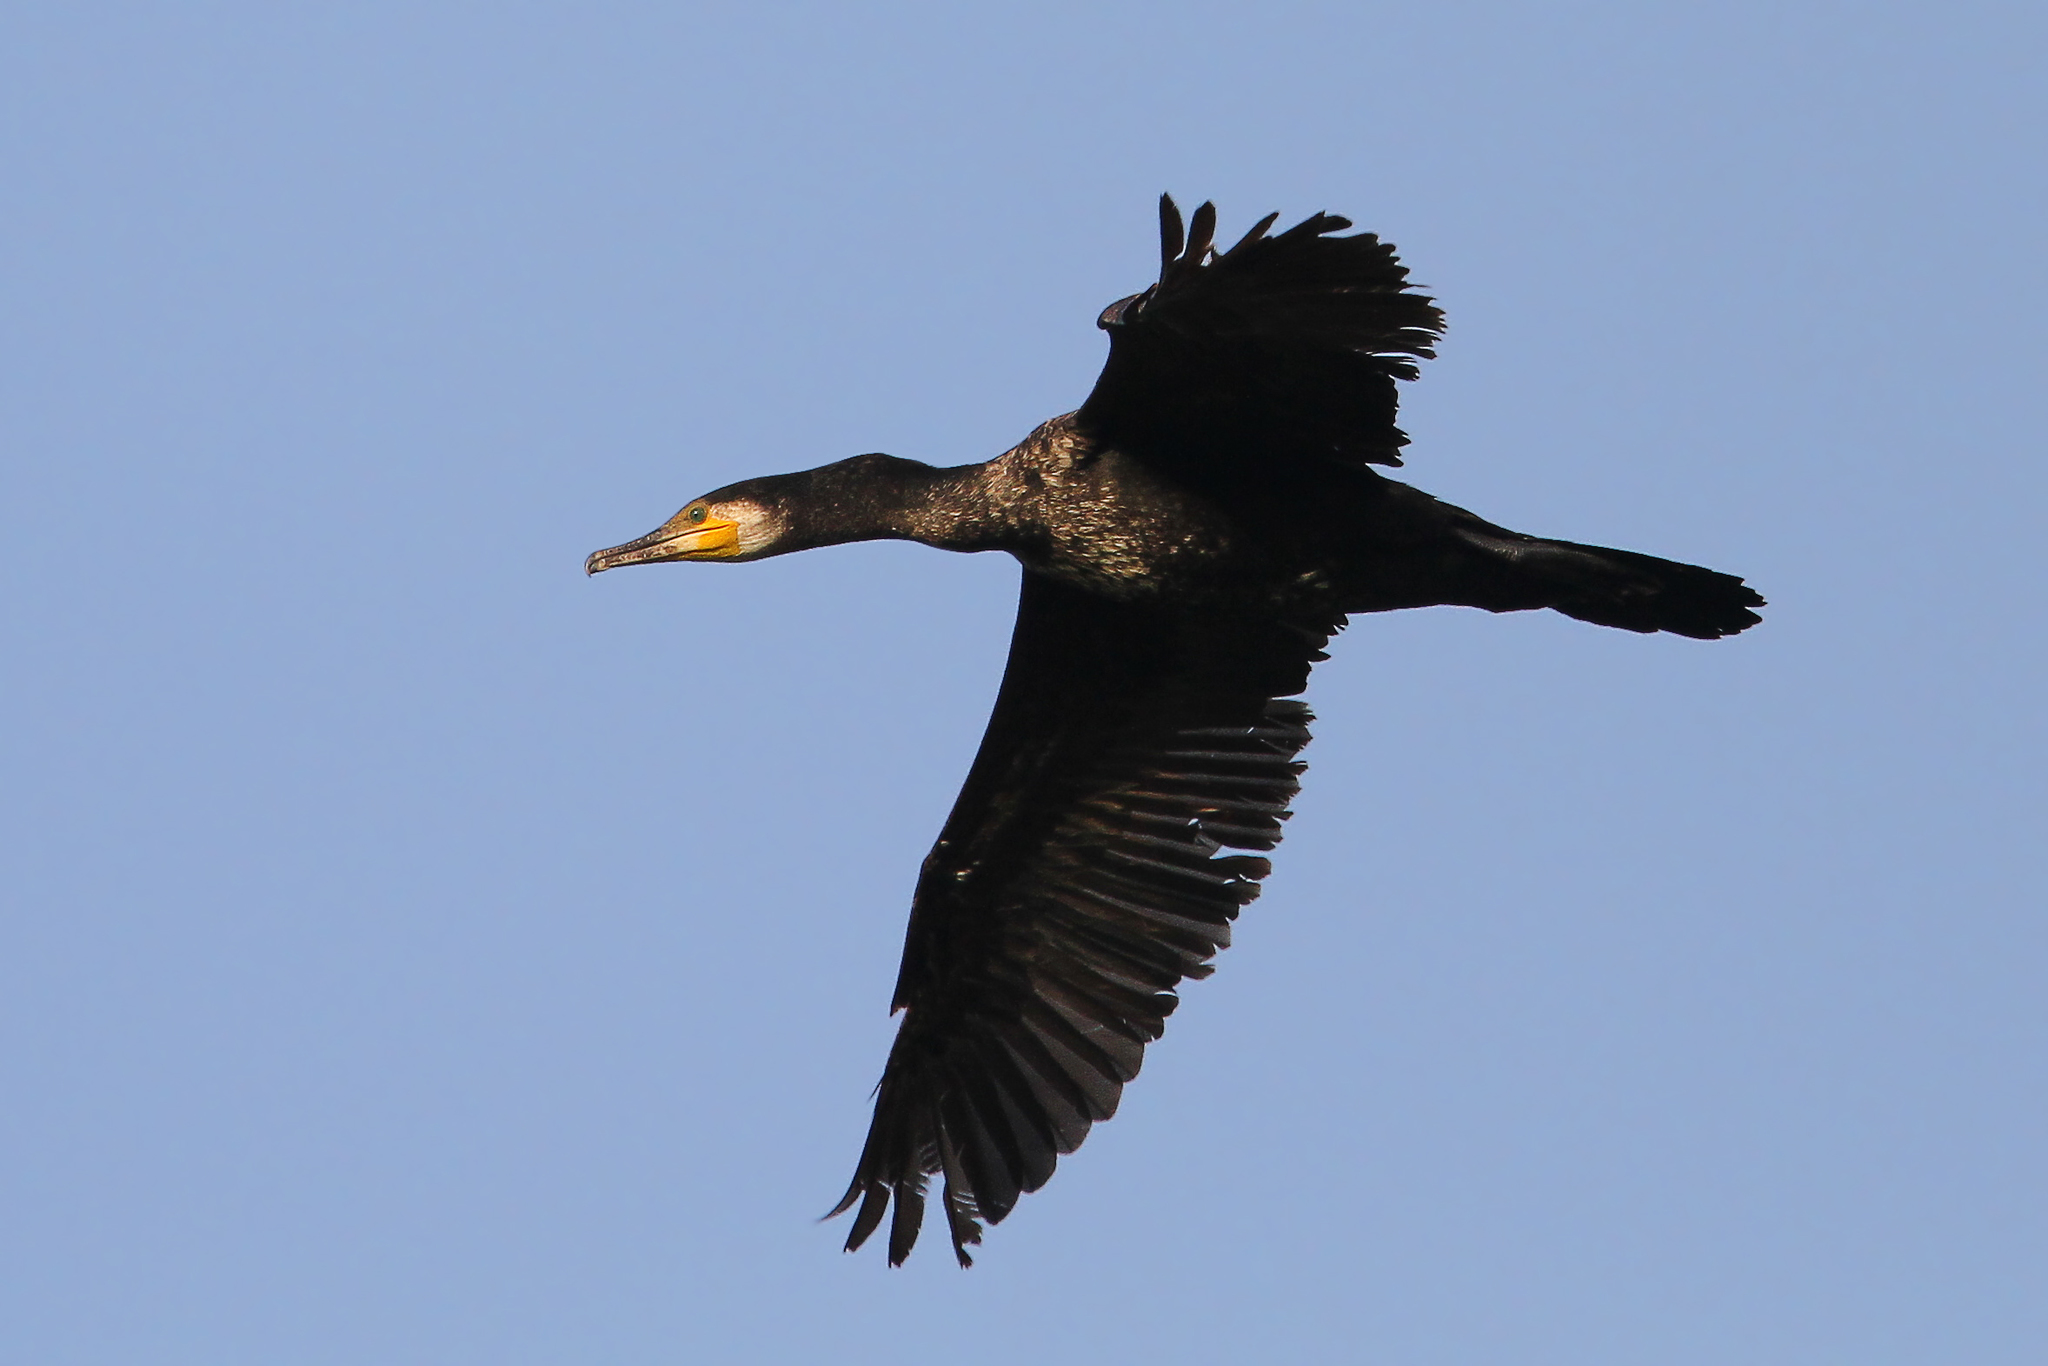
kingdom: Animalia
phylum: Chordata
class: Aves
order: Suliformes
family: Phalacrocoracidae
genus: Phalacrocorax
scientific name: Phalacrocorax carbo
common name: Great cormorant
